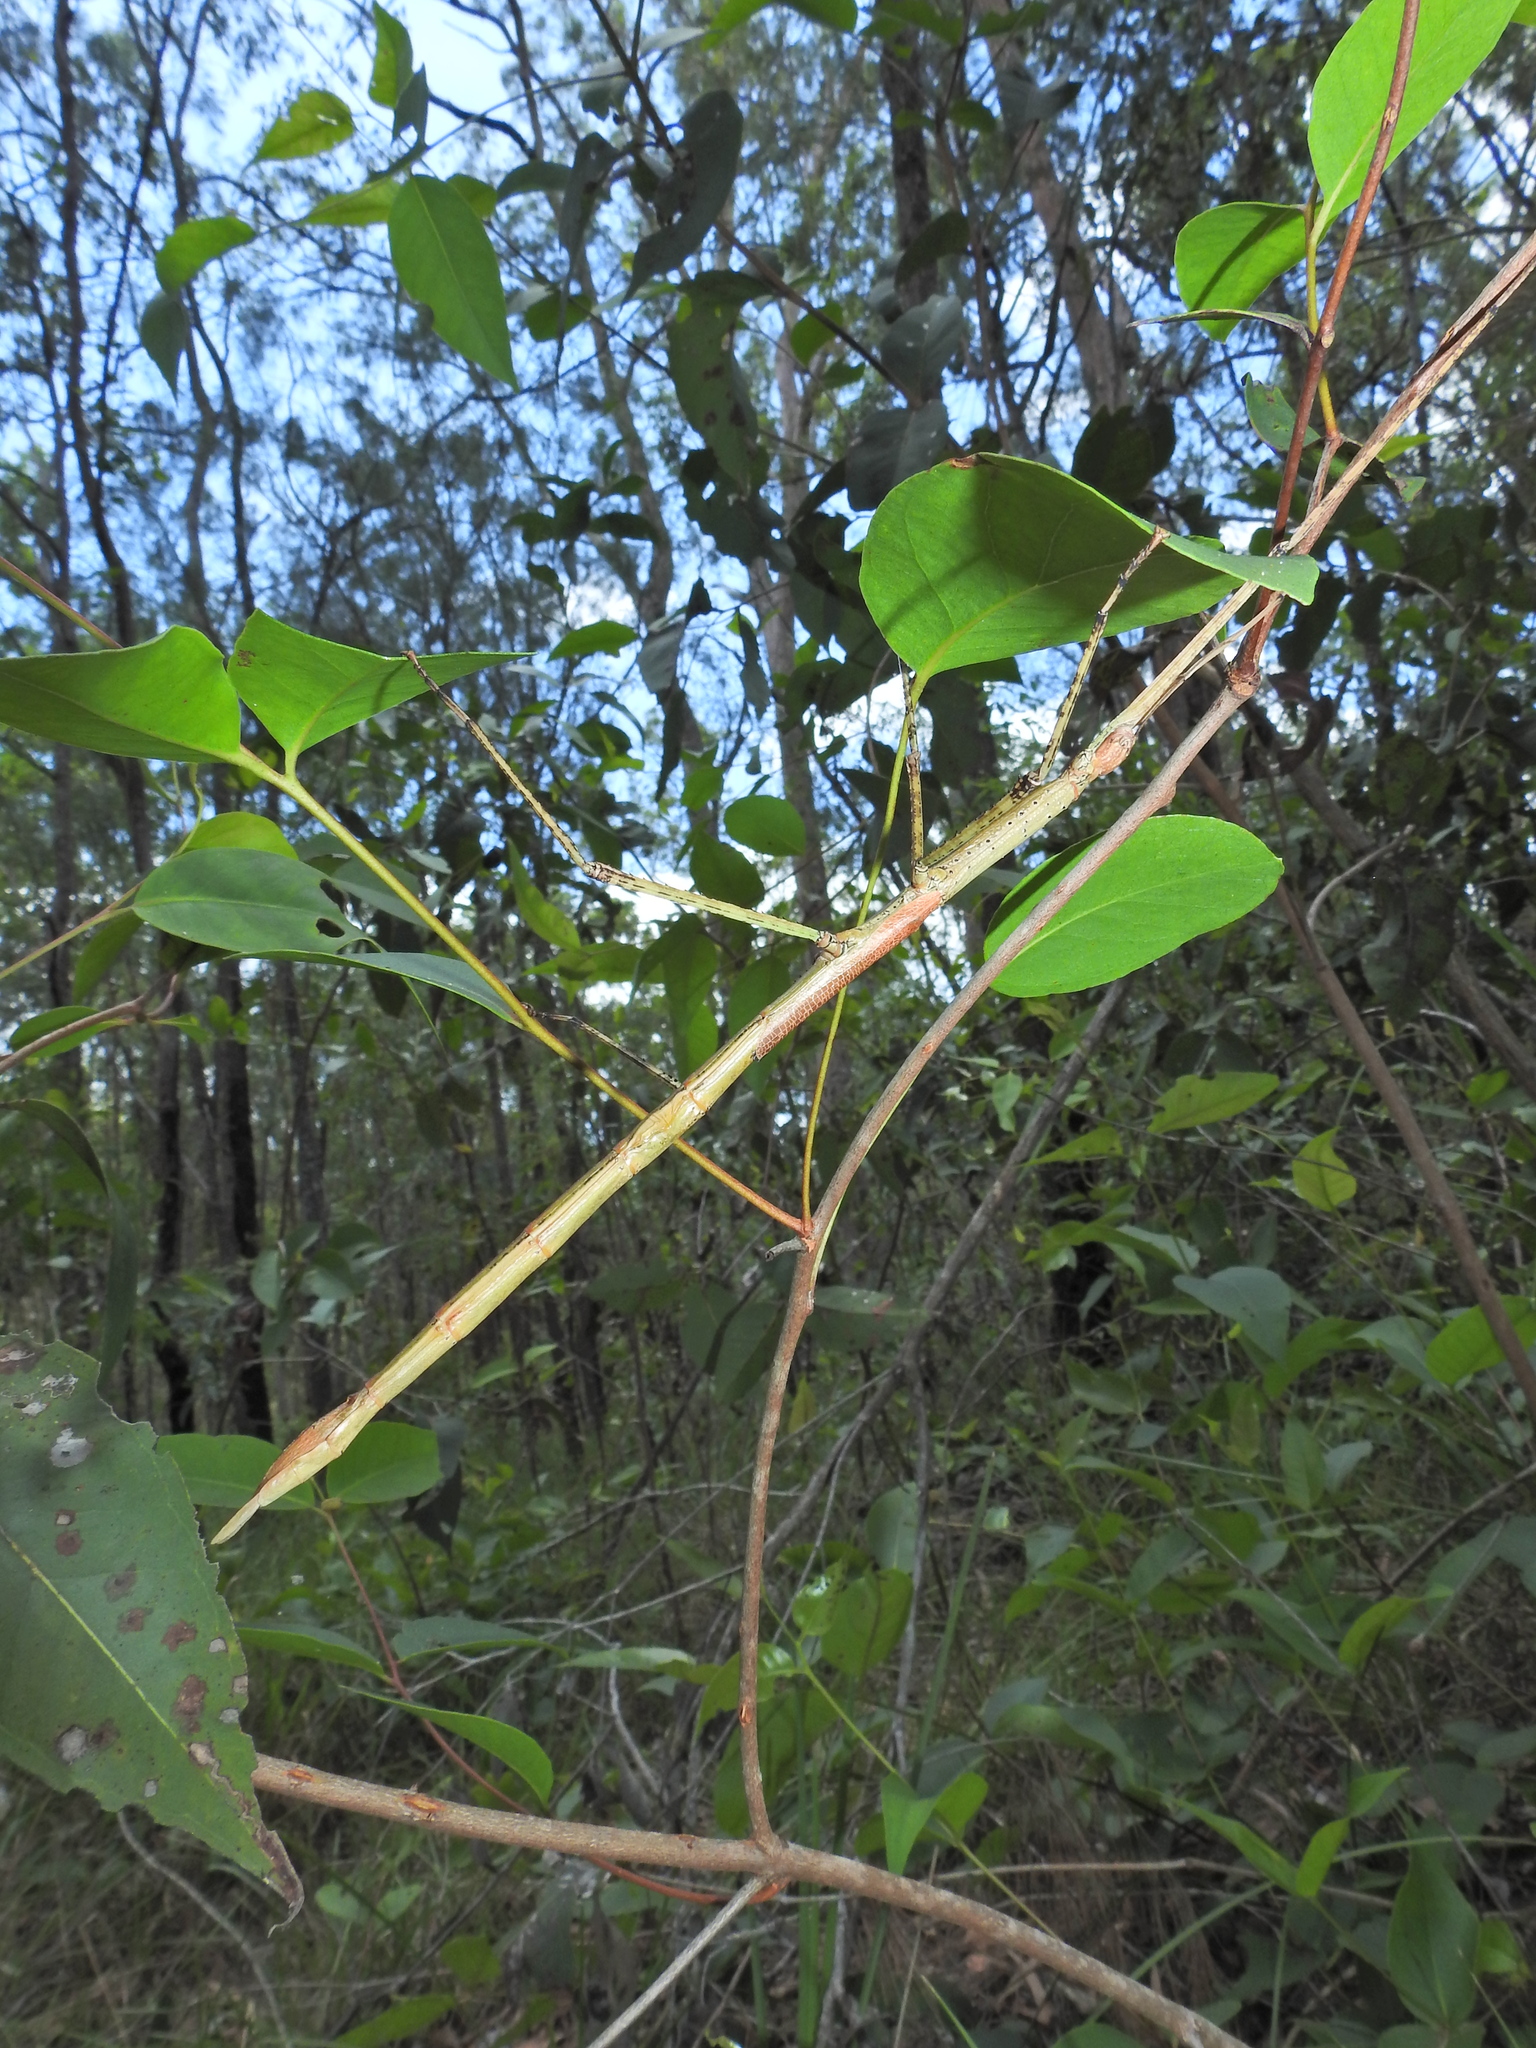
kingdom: Animalia
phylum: Arthropoda
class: Insecta
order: Phasmida
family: Phasmatidae
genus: Anchiale
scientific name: Anchiale austrotessulata
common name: Tessellated stick-insect
